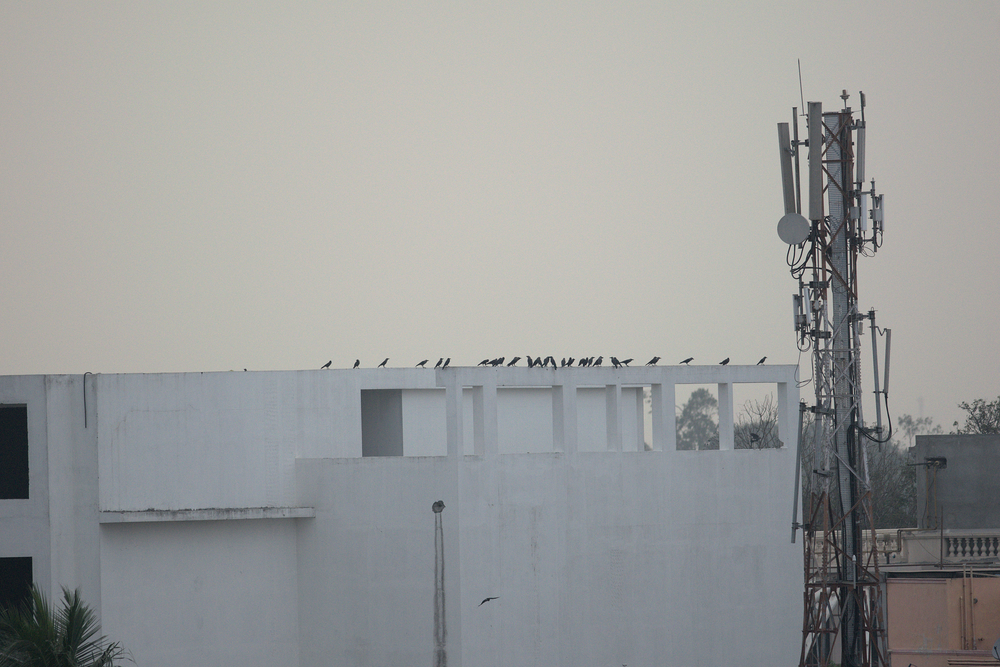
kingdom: Animalia
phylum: Chordata
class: Aves
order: Passeriformes
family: Corvidae
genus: Corvus
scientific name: Corvus splendens
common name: House crow
